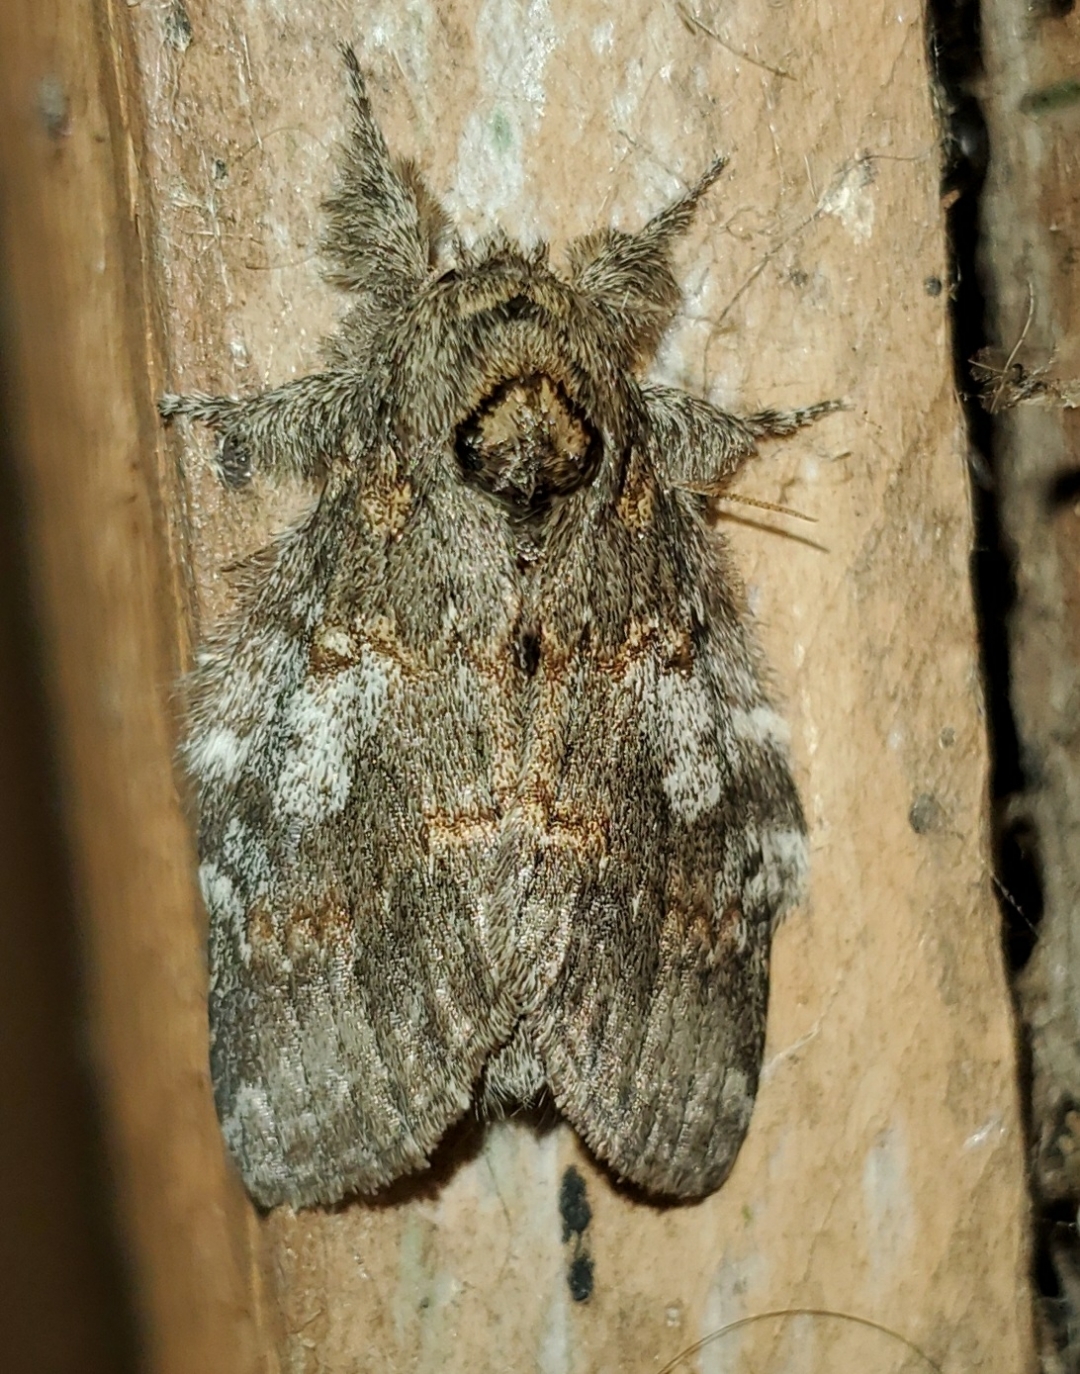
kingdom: Animalia
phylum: Arthropoda
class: Insecta
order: Lepidoptera
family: Notodontidae
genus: Peridea
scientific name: Peridea angulosa
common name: Angulose prominent
